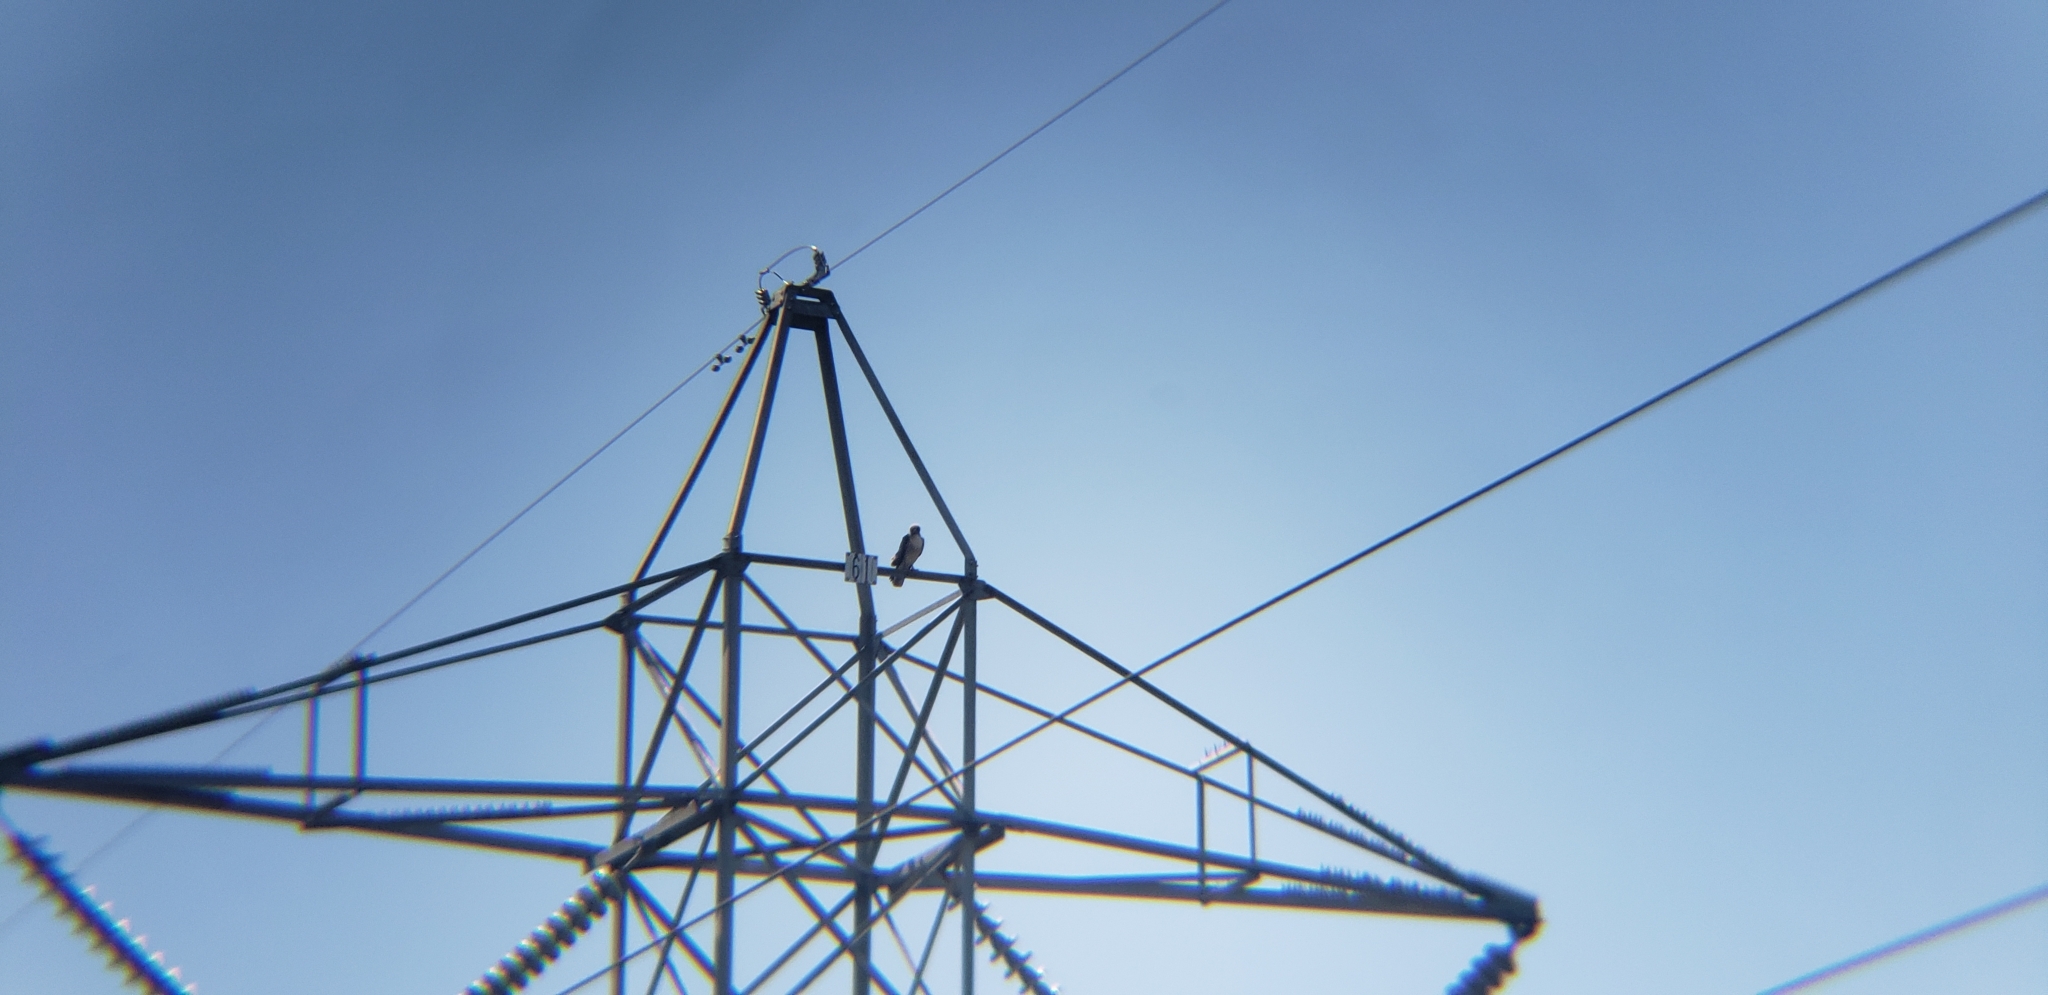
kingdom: Animalia
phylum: Chordata
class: Aves
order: Accipitriformes
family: Accipitridae
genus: Buteo
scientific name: Buteo jamaicensis
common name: Red-tailed hawk
